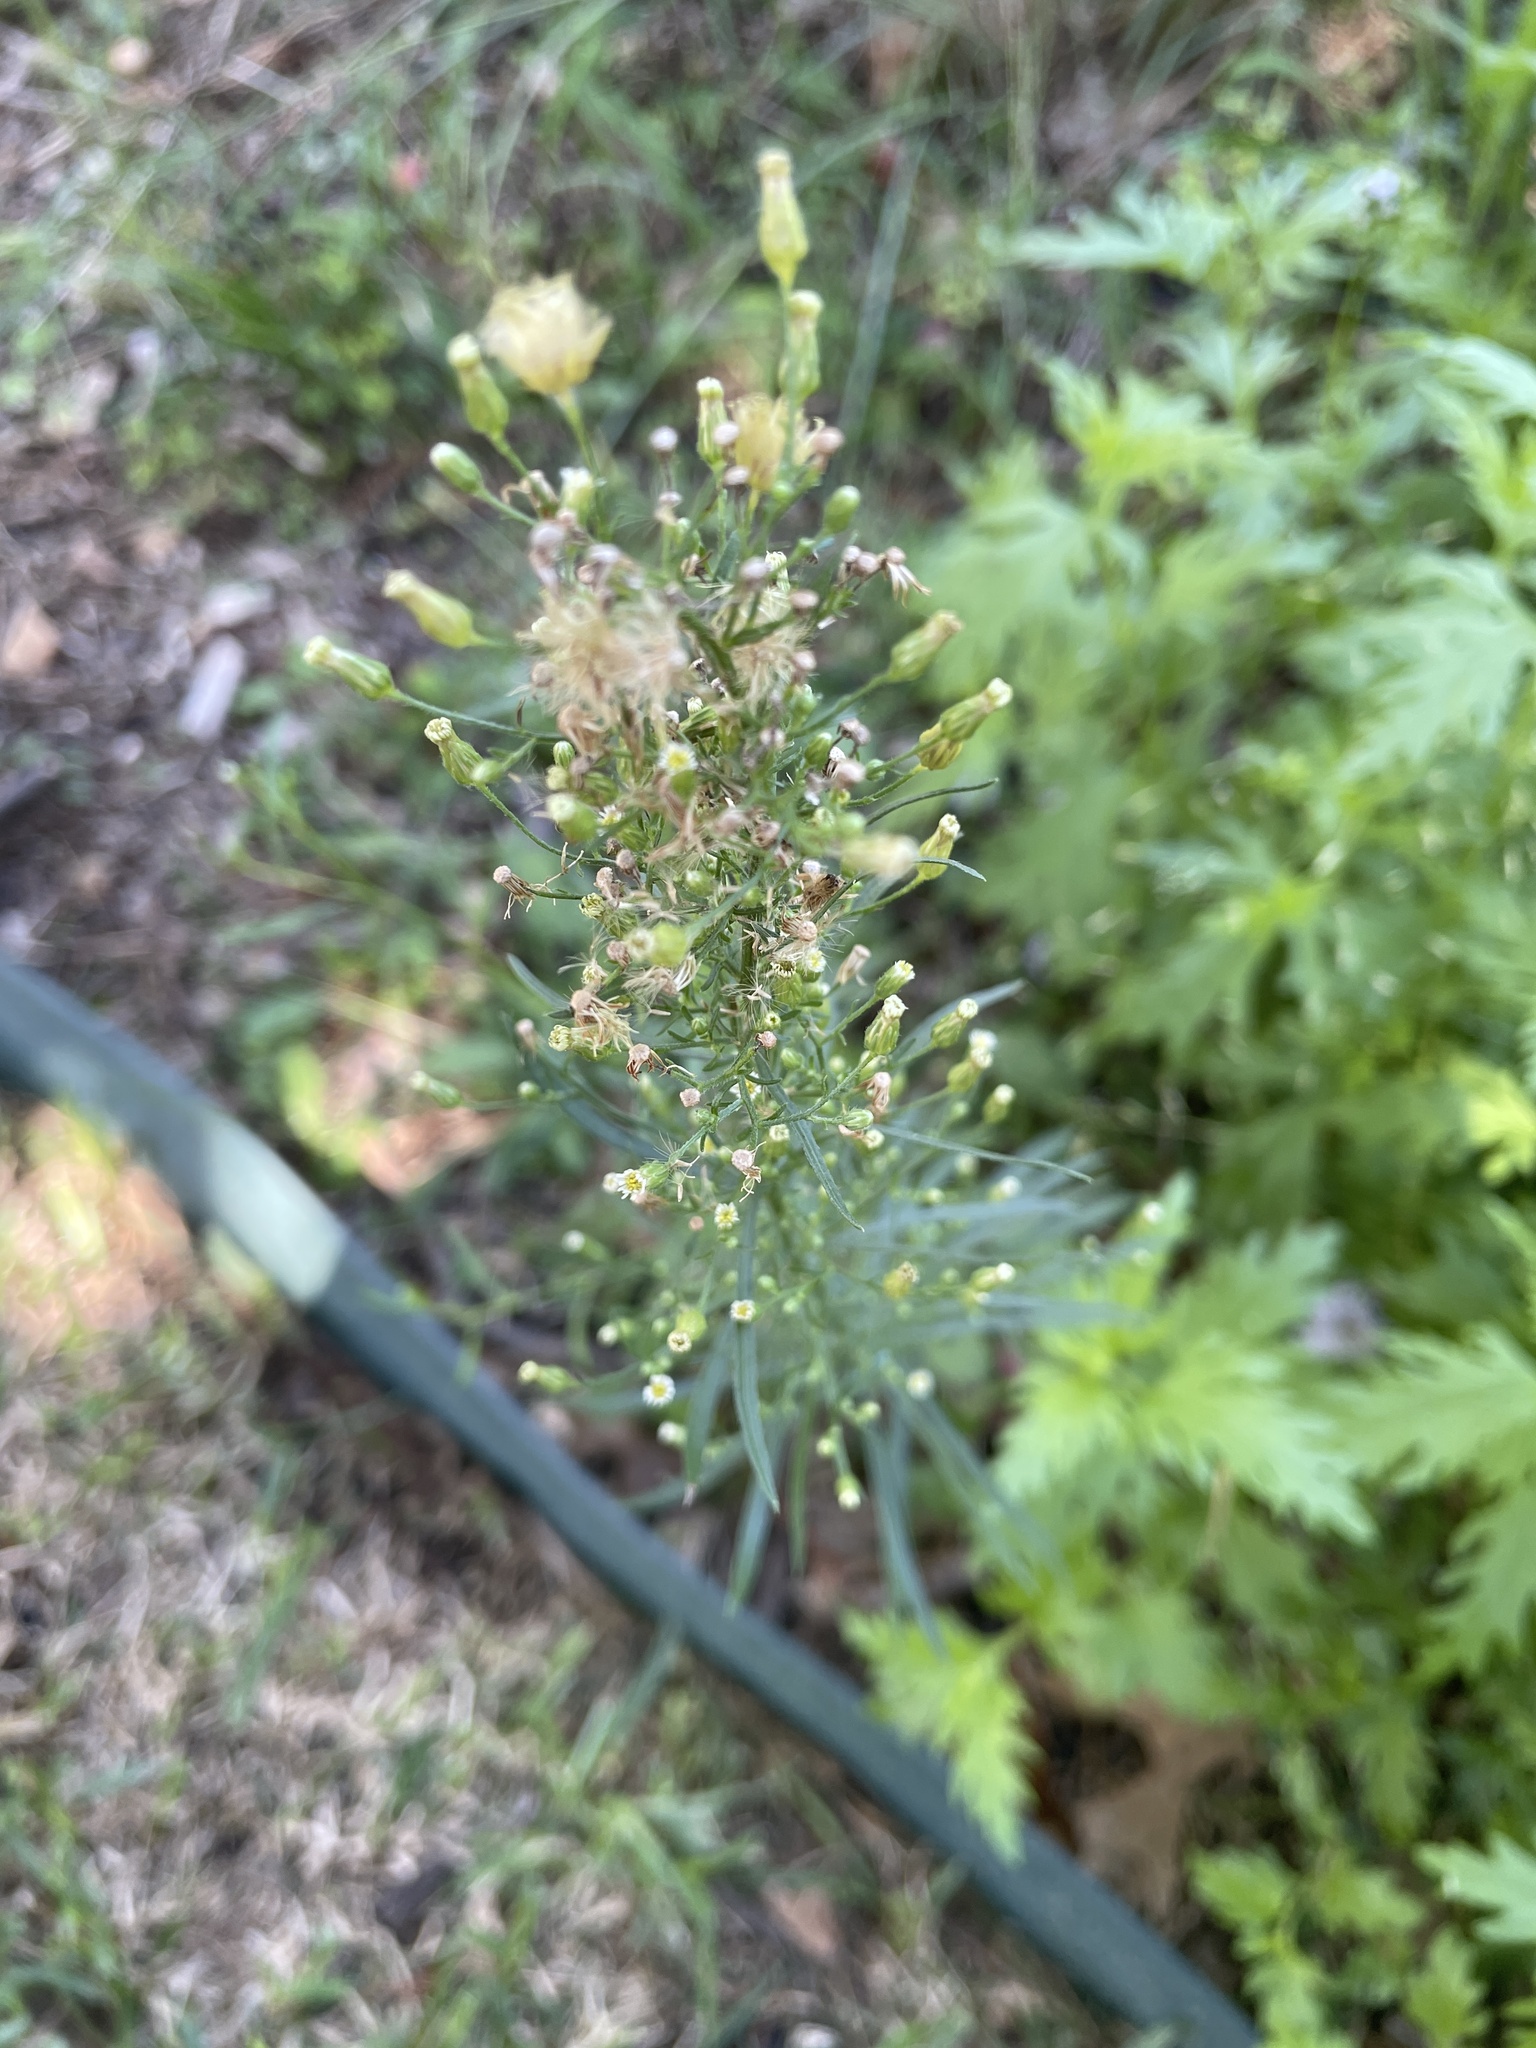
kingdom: Plantae
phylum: Tracheophyta
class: Magnoliopsida
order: Asterales
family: Asteraceae
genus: Erigeron
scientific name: Erigeron canadensis
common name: Canadian fleabane
